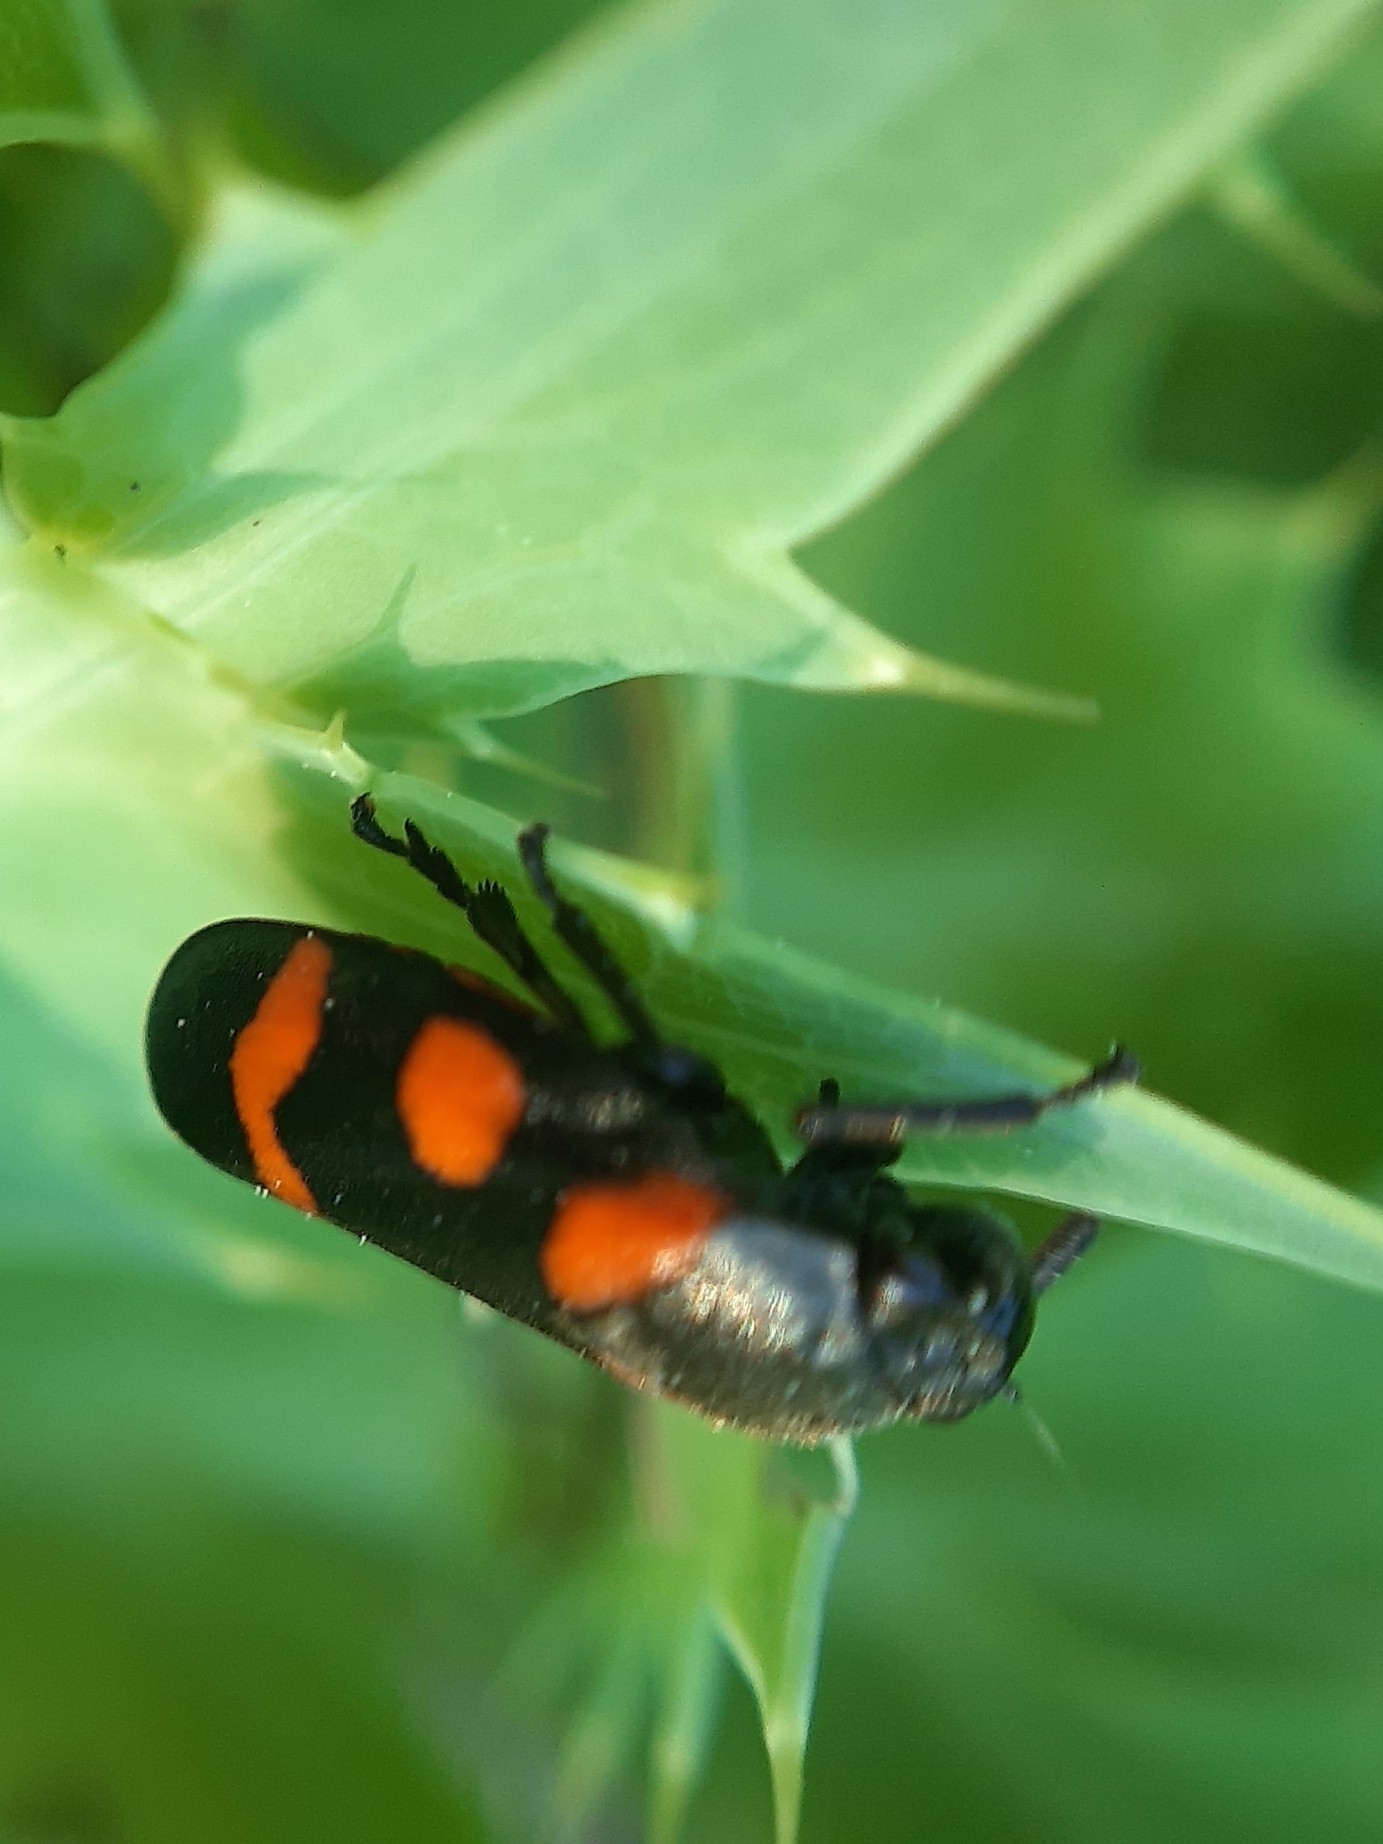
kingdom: Animalia
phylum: Arthropoda
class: Insecta
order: Hemiptera
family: Cercopidae
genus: Cercopis
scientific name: Cercopis
